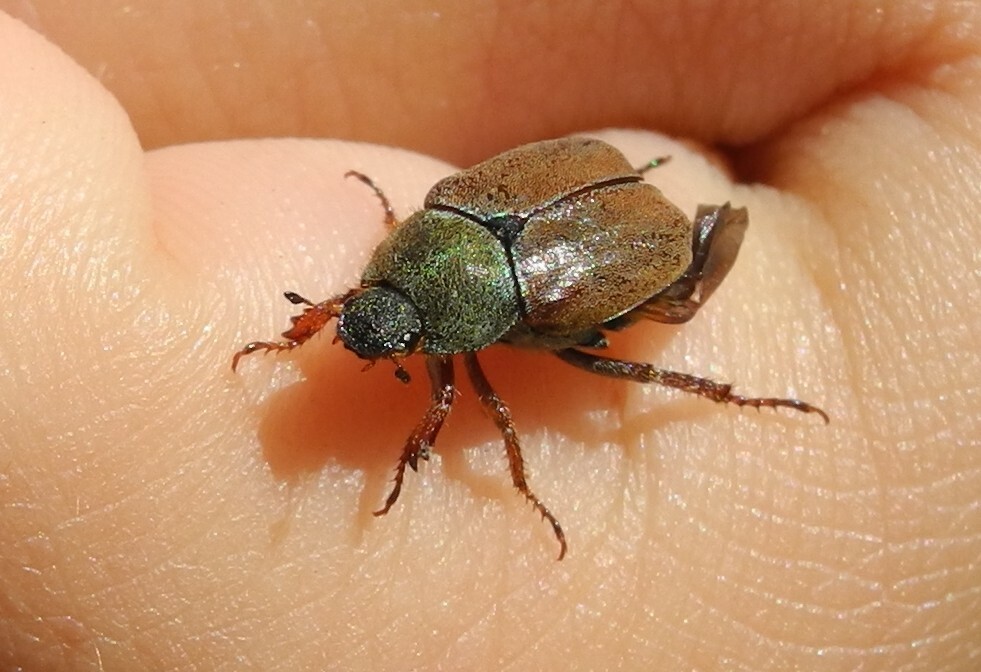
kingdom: Animalia
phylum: Arthropoda
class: Insecta
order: Coleoptera
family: Scarabaeidae
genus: Hoplia
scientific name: Hoplia philanthus
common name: Welsh chafer
